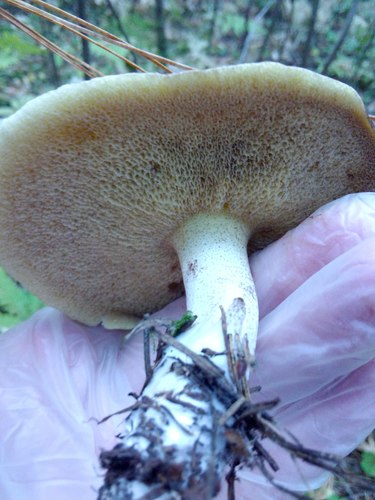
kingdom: Fungi
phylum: Basidiomycota
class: Agaricomycetes
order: Boletales
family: Suillaceae
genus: Suillus
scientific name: Suillus placidus
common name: Slippery white bolete
